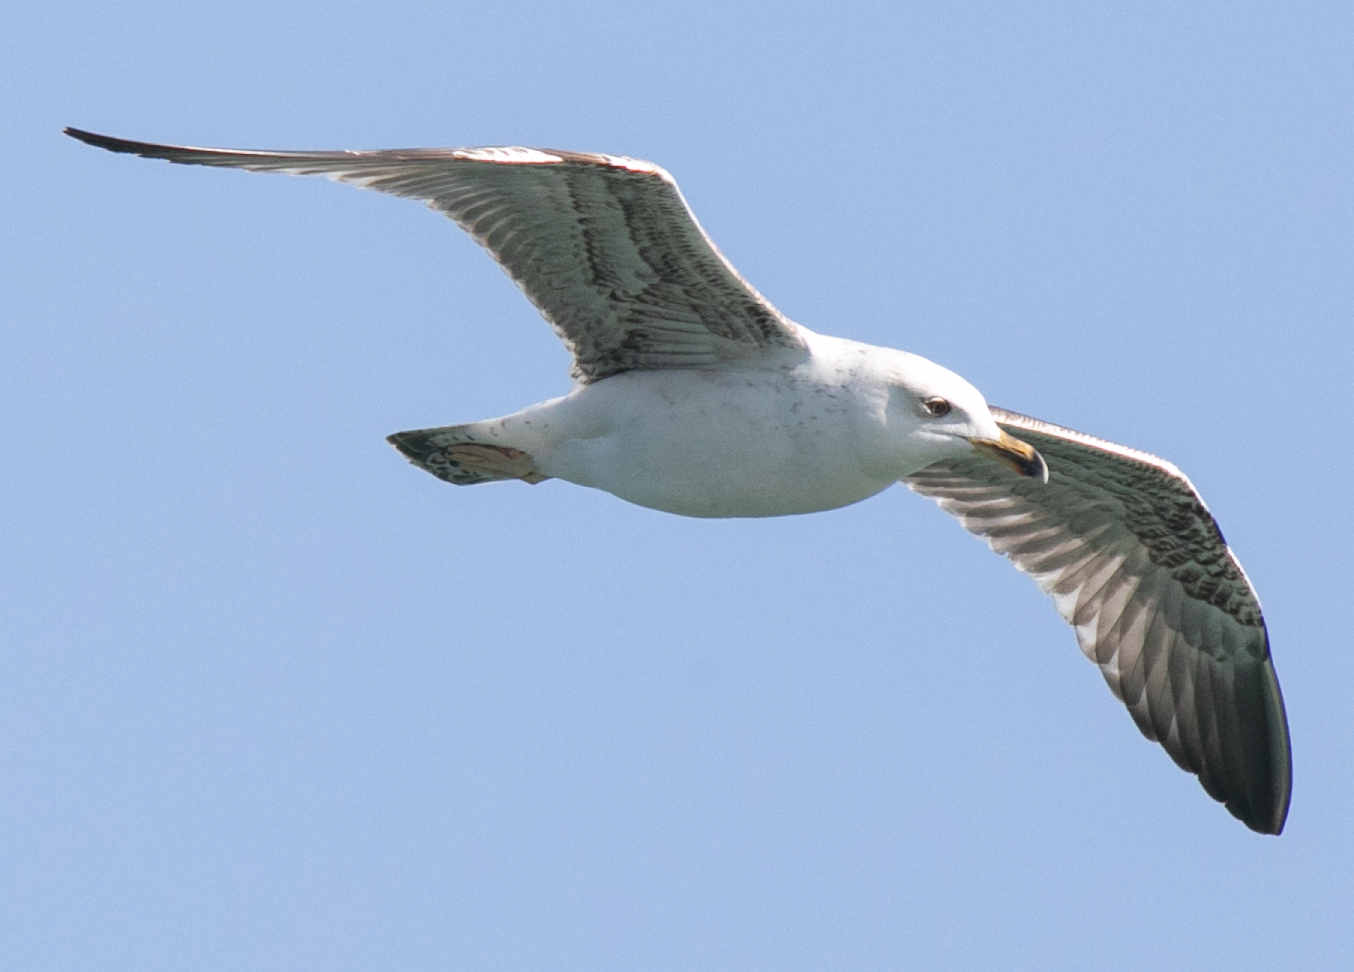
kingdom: Animalia
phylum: Chordata
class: Aves
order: Charadriiformes
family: Laridae
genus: Larus
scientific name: Larus michahellis
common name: Yellow-legged gull
